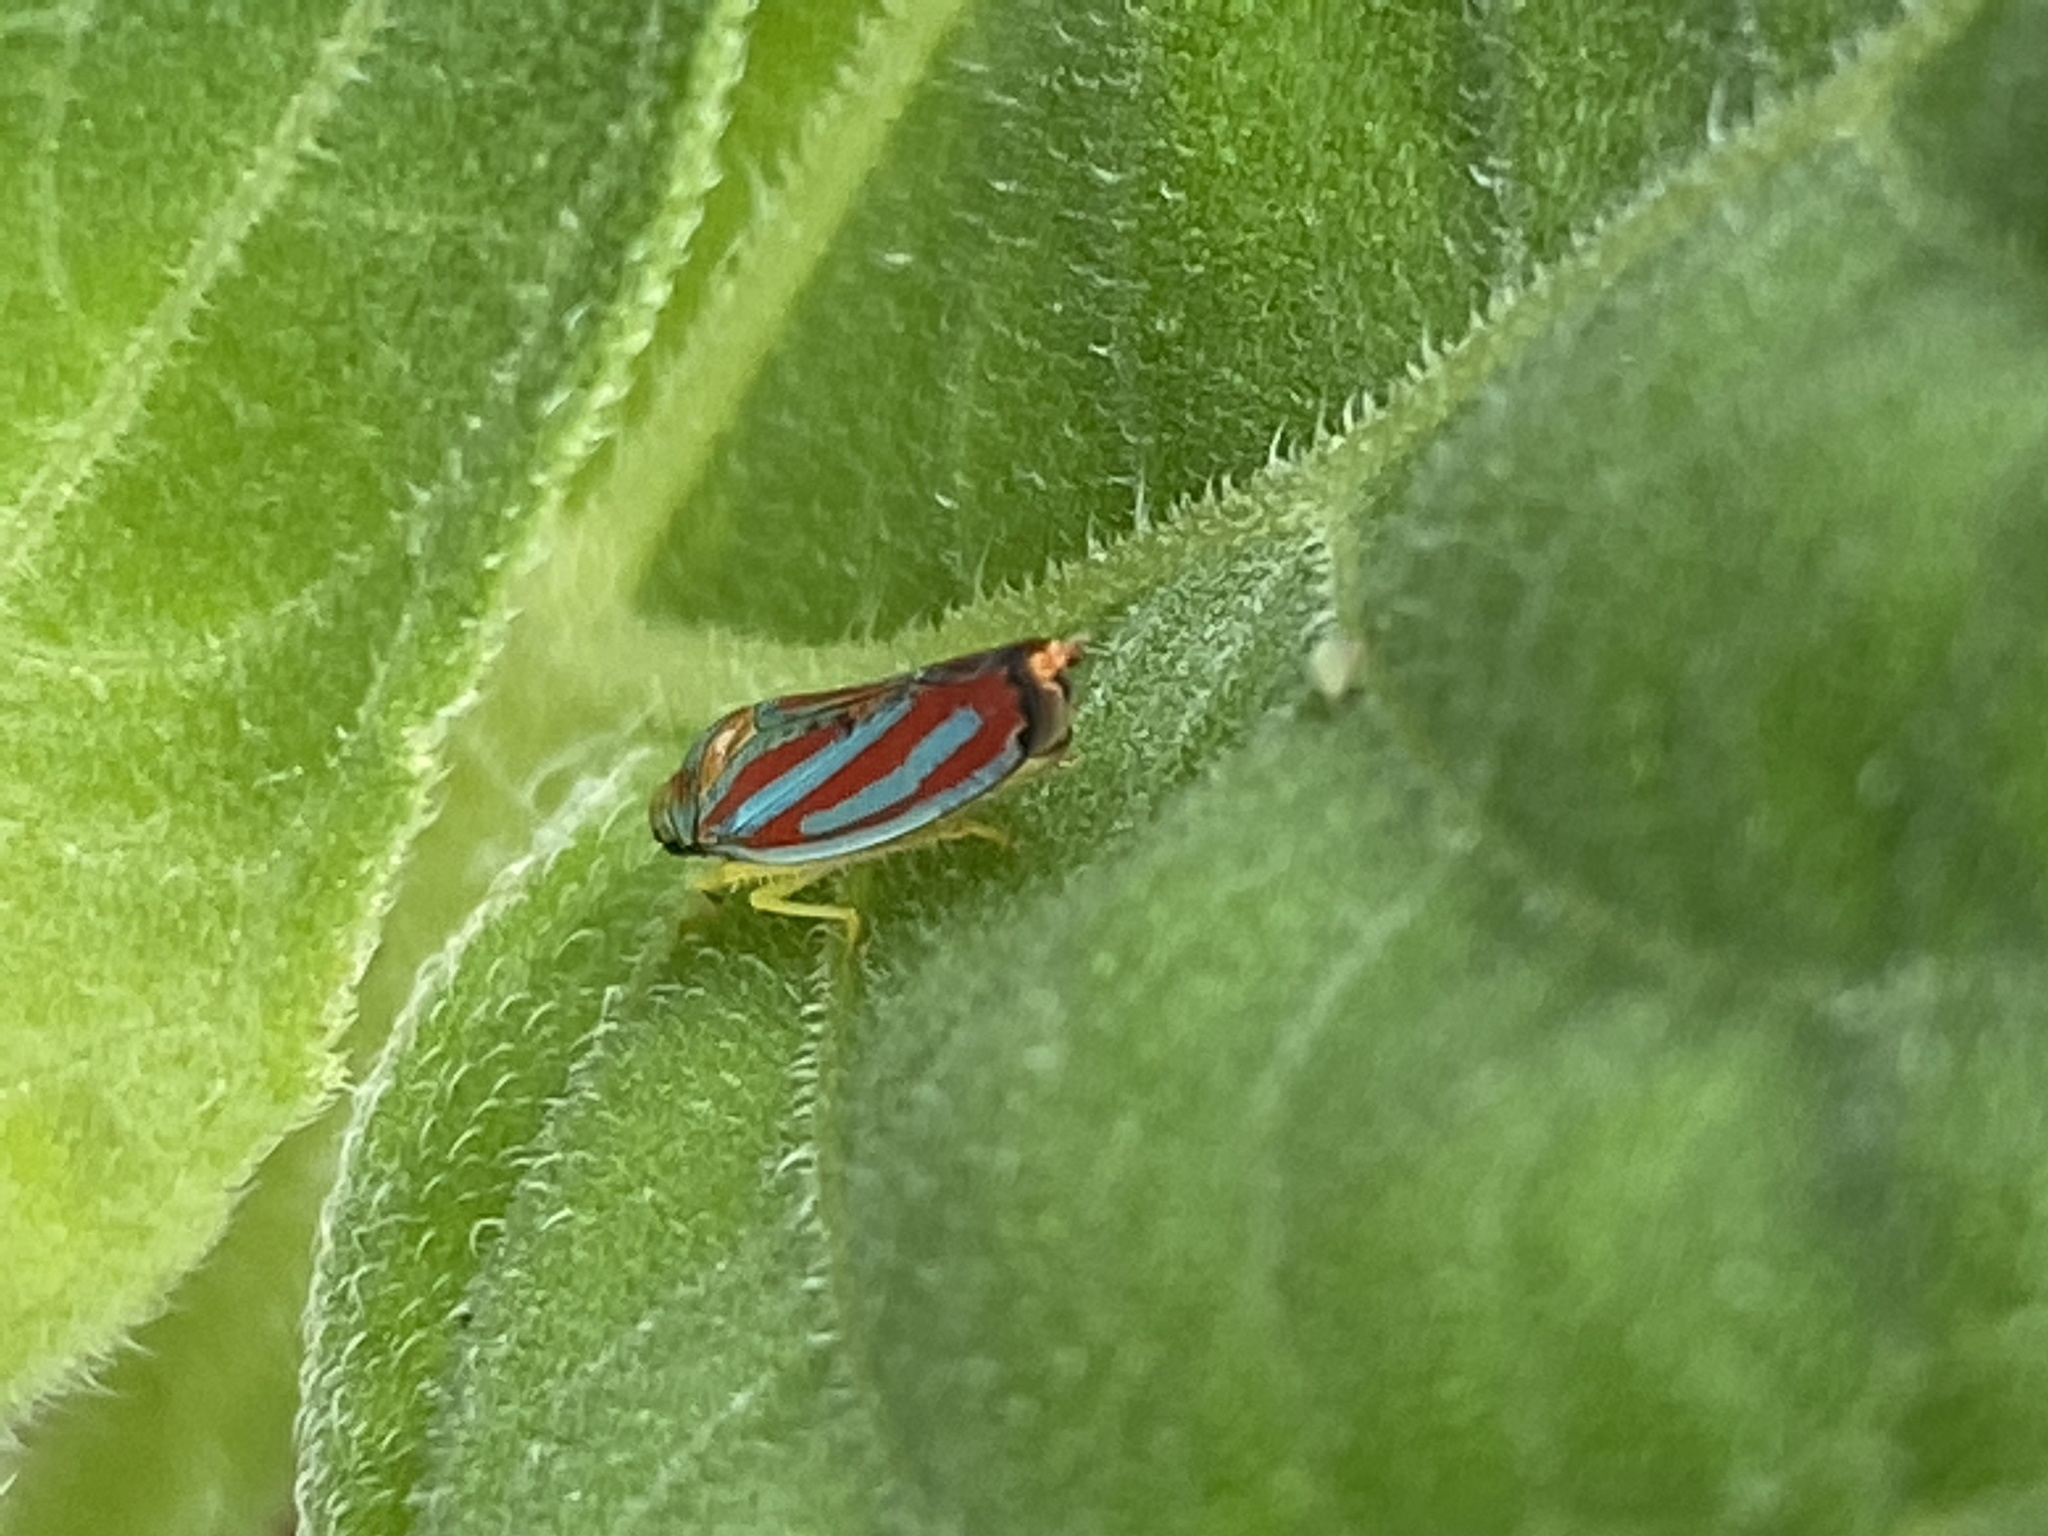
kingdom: Animalia
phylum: Arthropoda
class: Insecta
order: Hemiptera
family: Cicadellidae
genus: Graphocephala
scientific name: Graphocephala coccinea
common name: Candy-striped leafhopper
